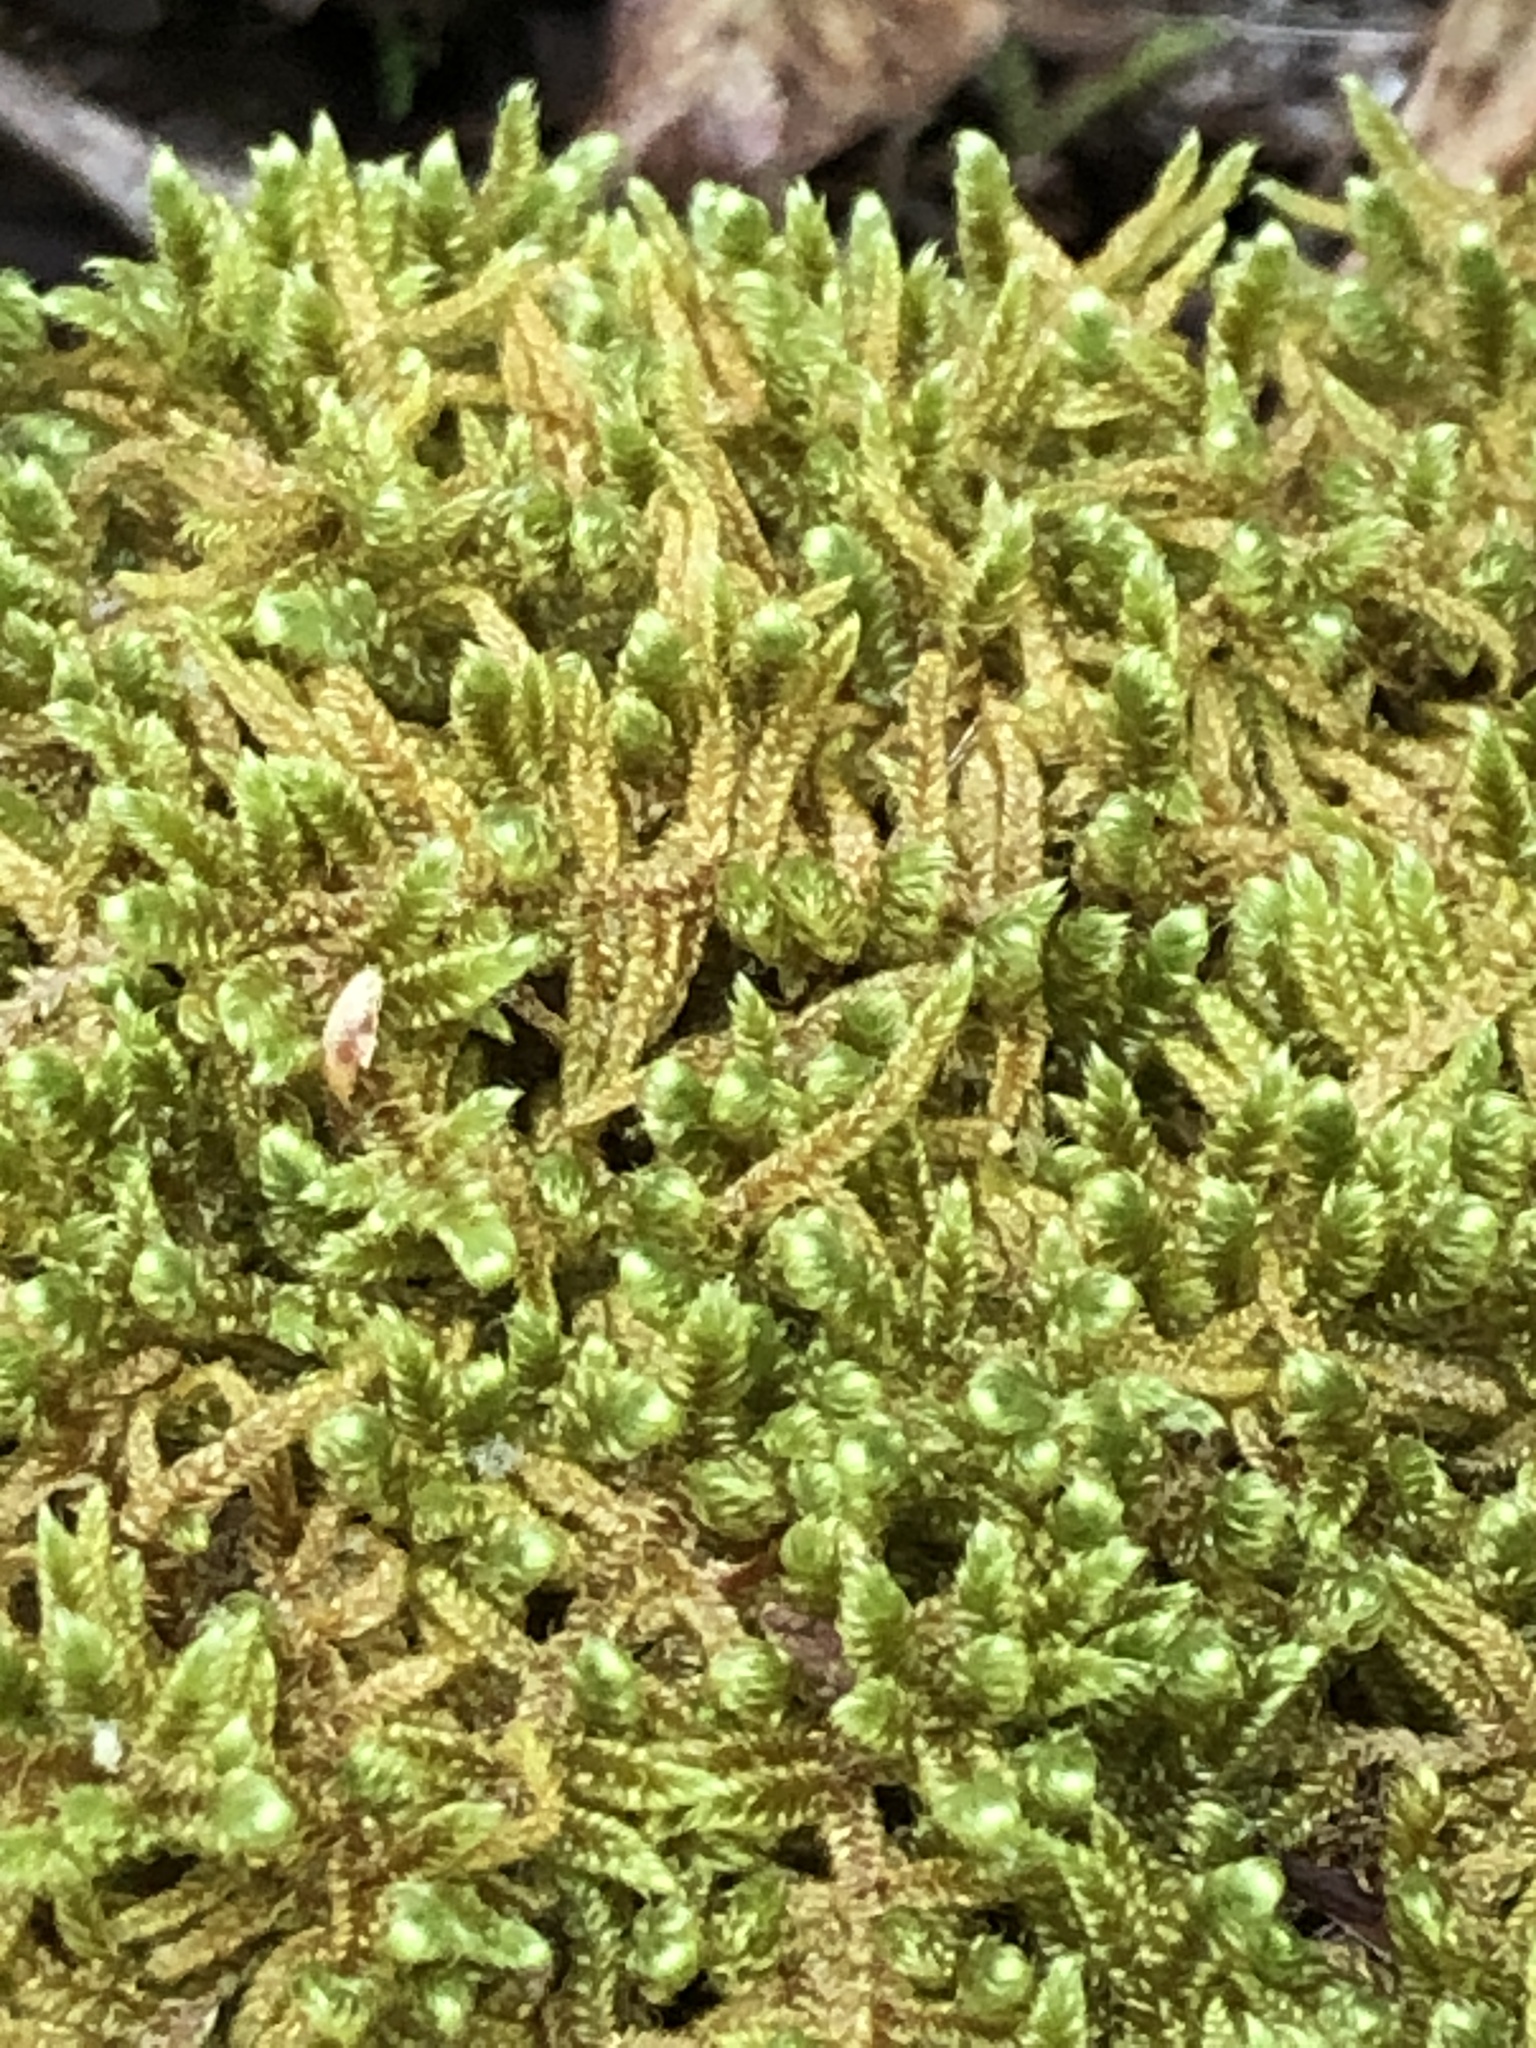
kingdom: Plantae
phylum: Bryophyta
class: Bryopsida
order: Hypnales
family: Callicladiaceae
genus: Callicladium
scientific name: Callicladium imponens
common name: Brocade moss
